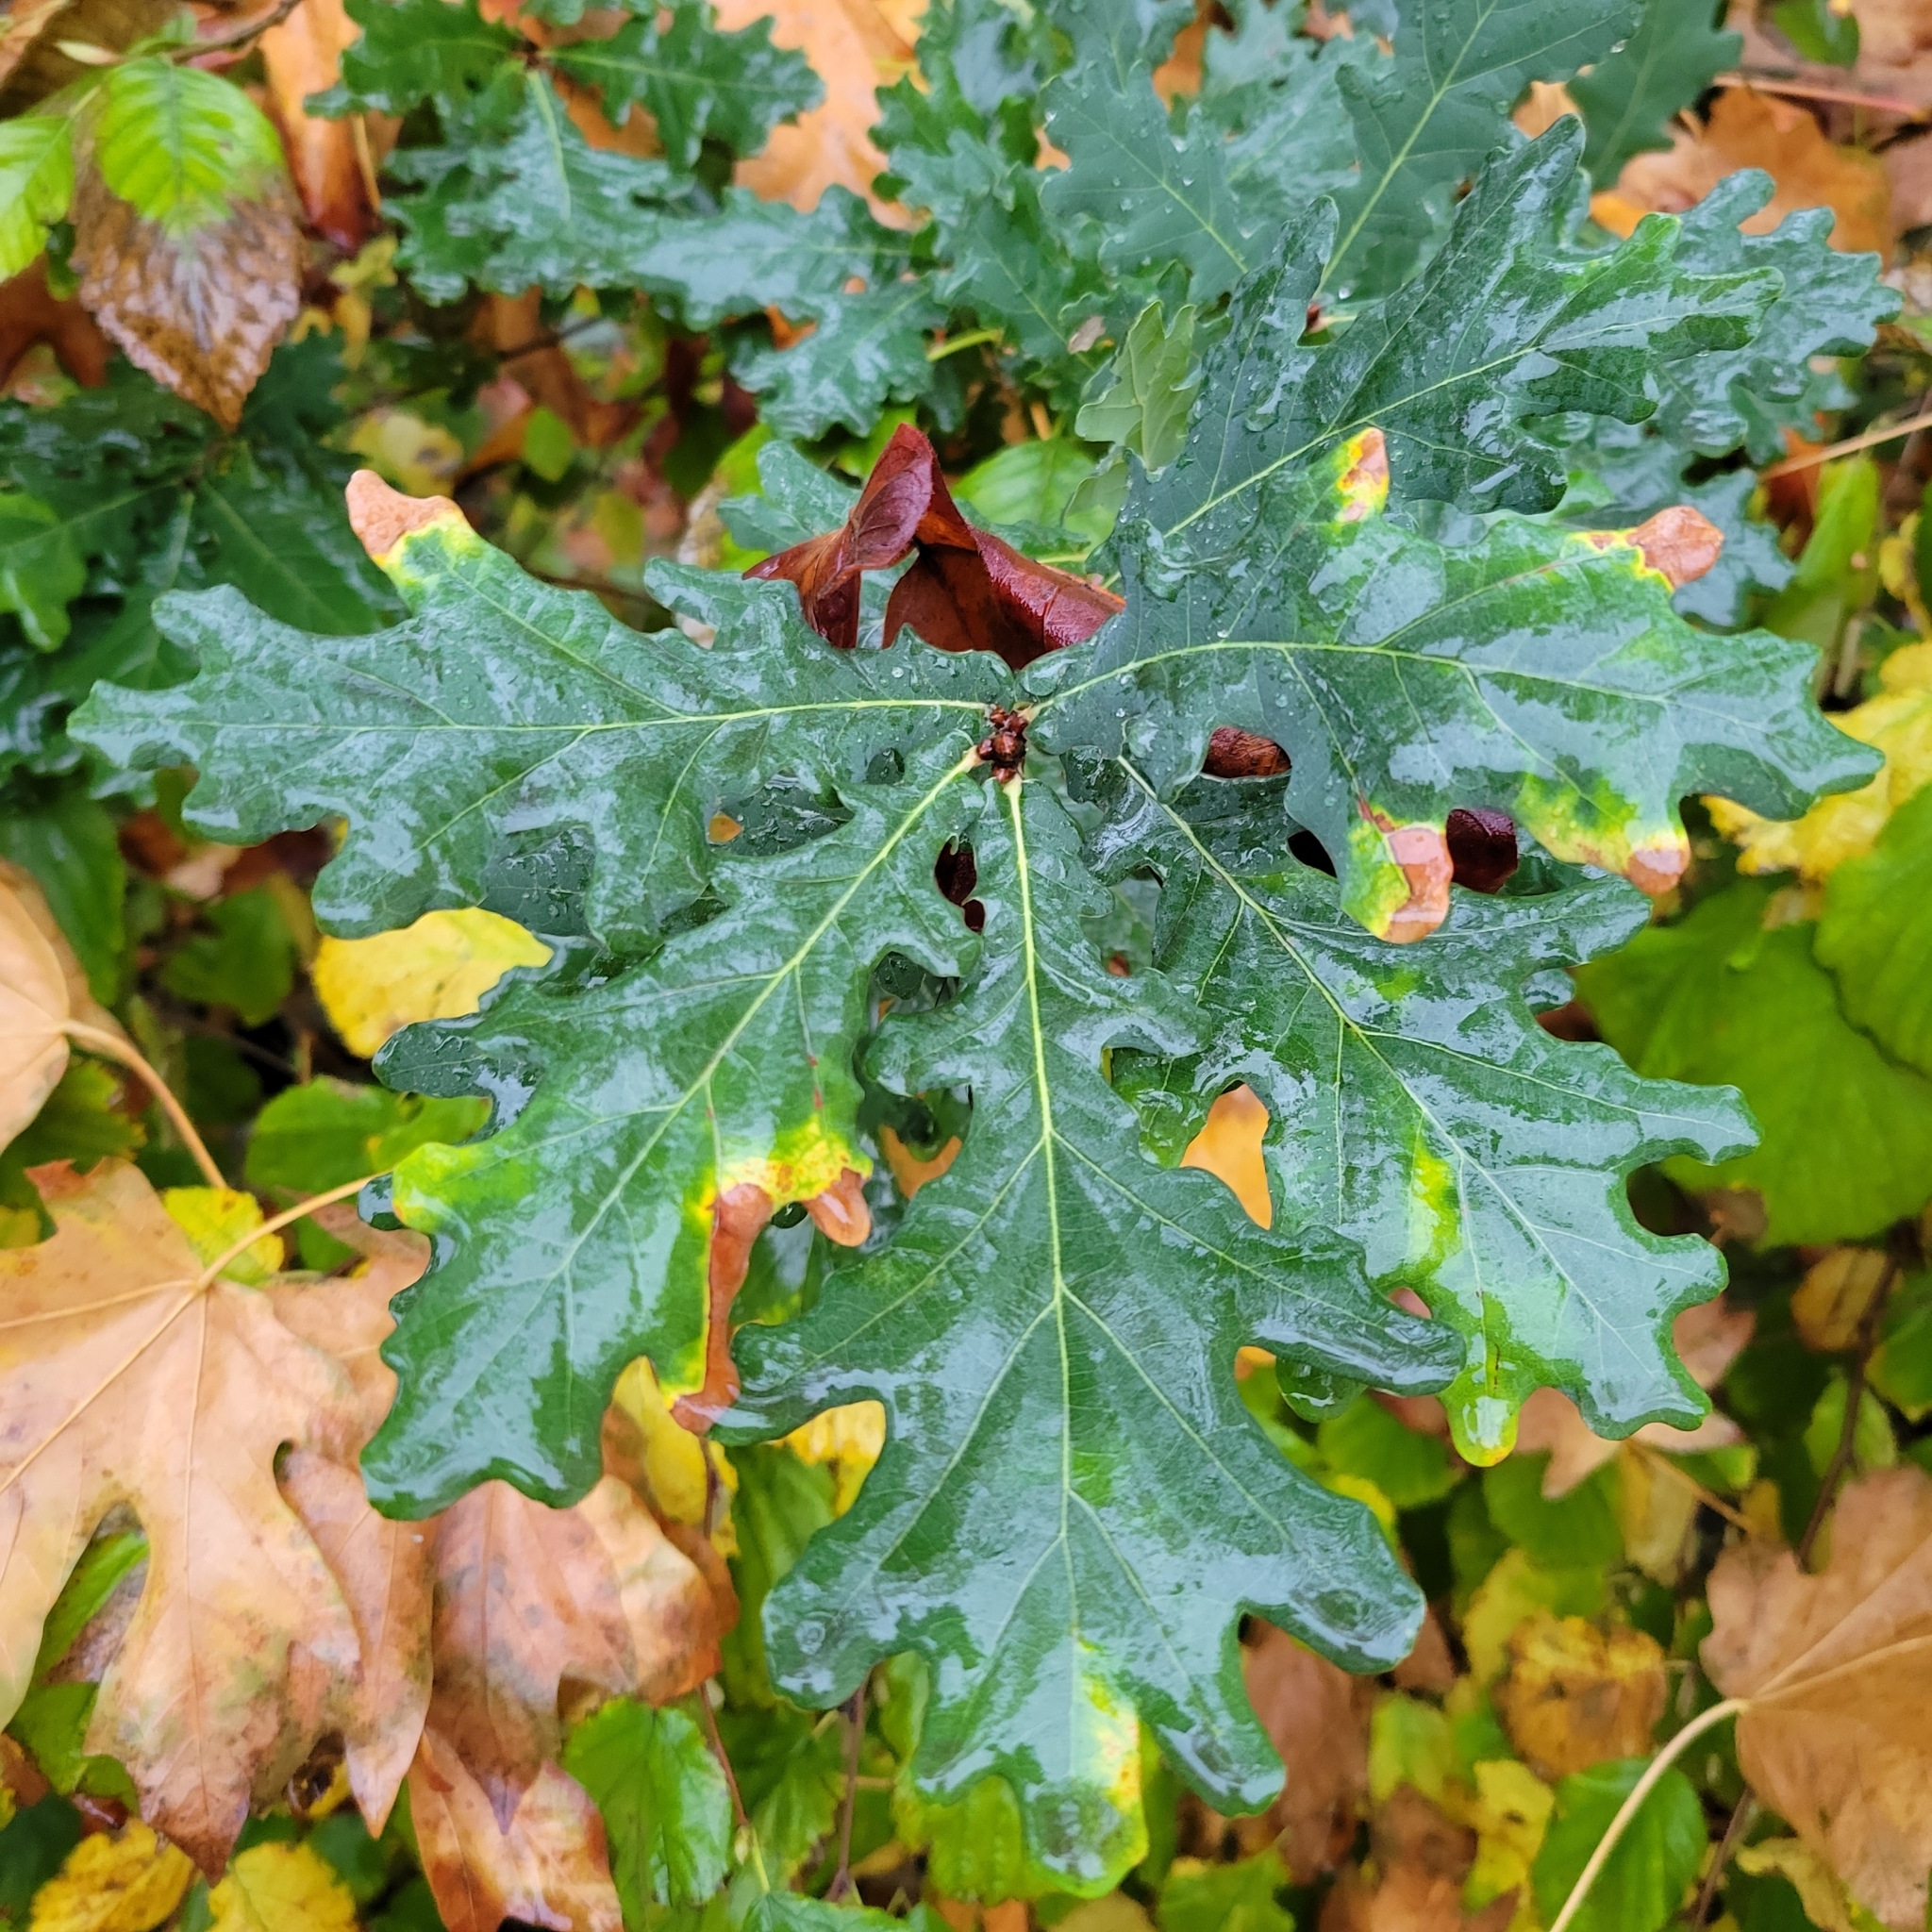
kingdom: Plantae
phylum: Tracheophyta
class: Magnoliopsida
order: Fagales
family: Fagaceae
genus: Quercus
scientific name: Quercus robur
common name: Pedunculate oak
